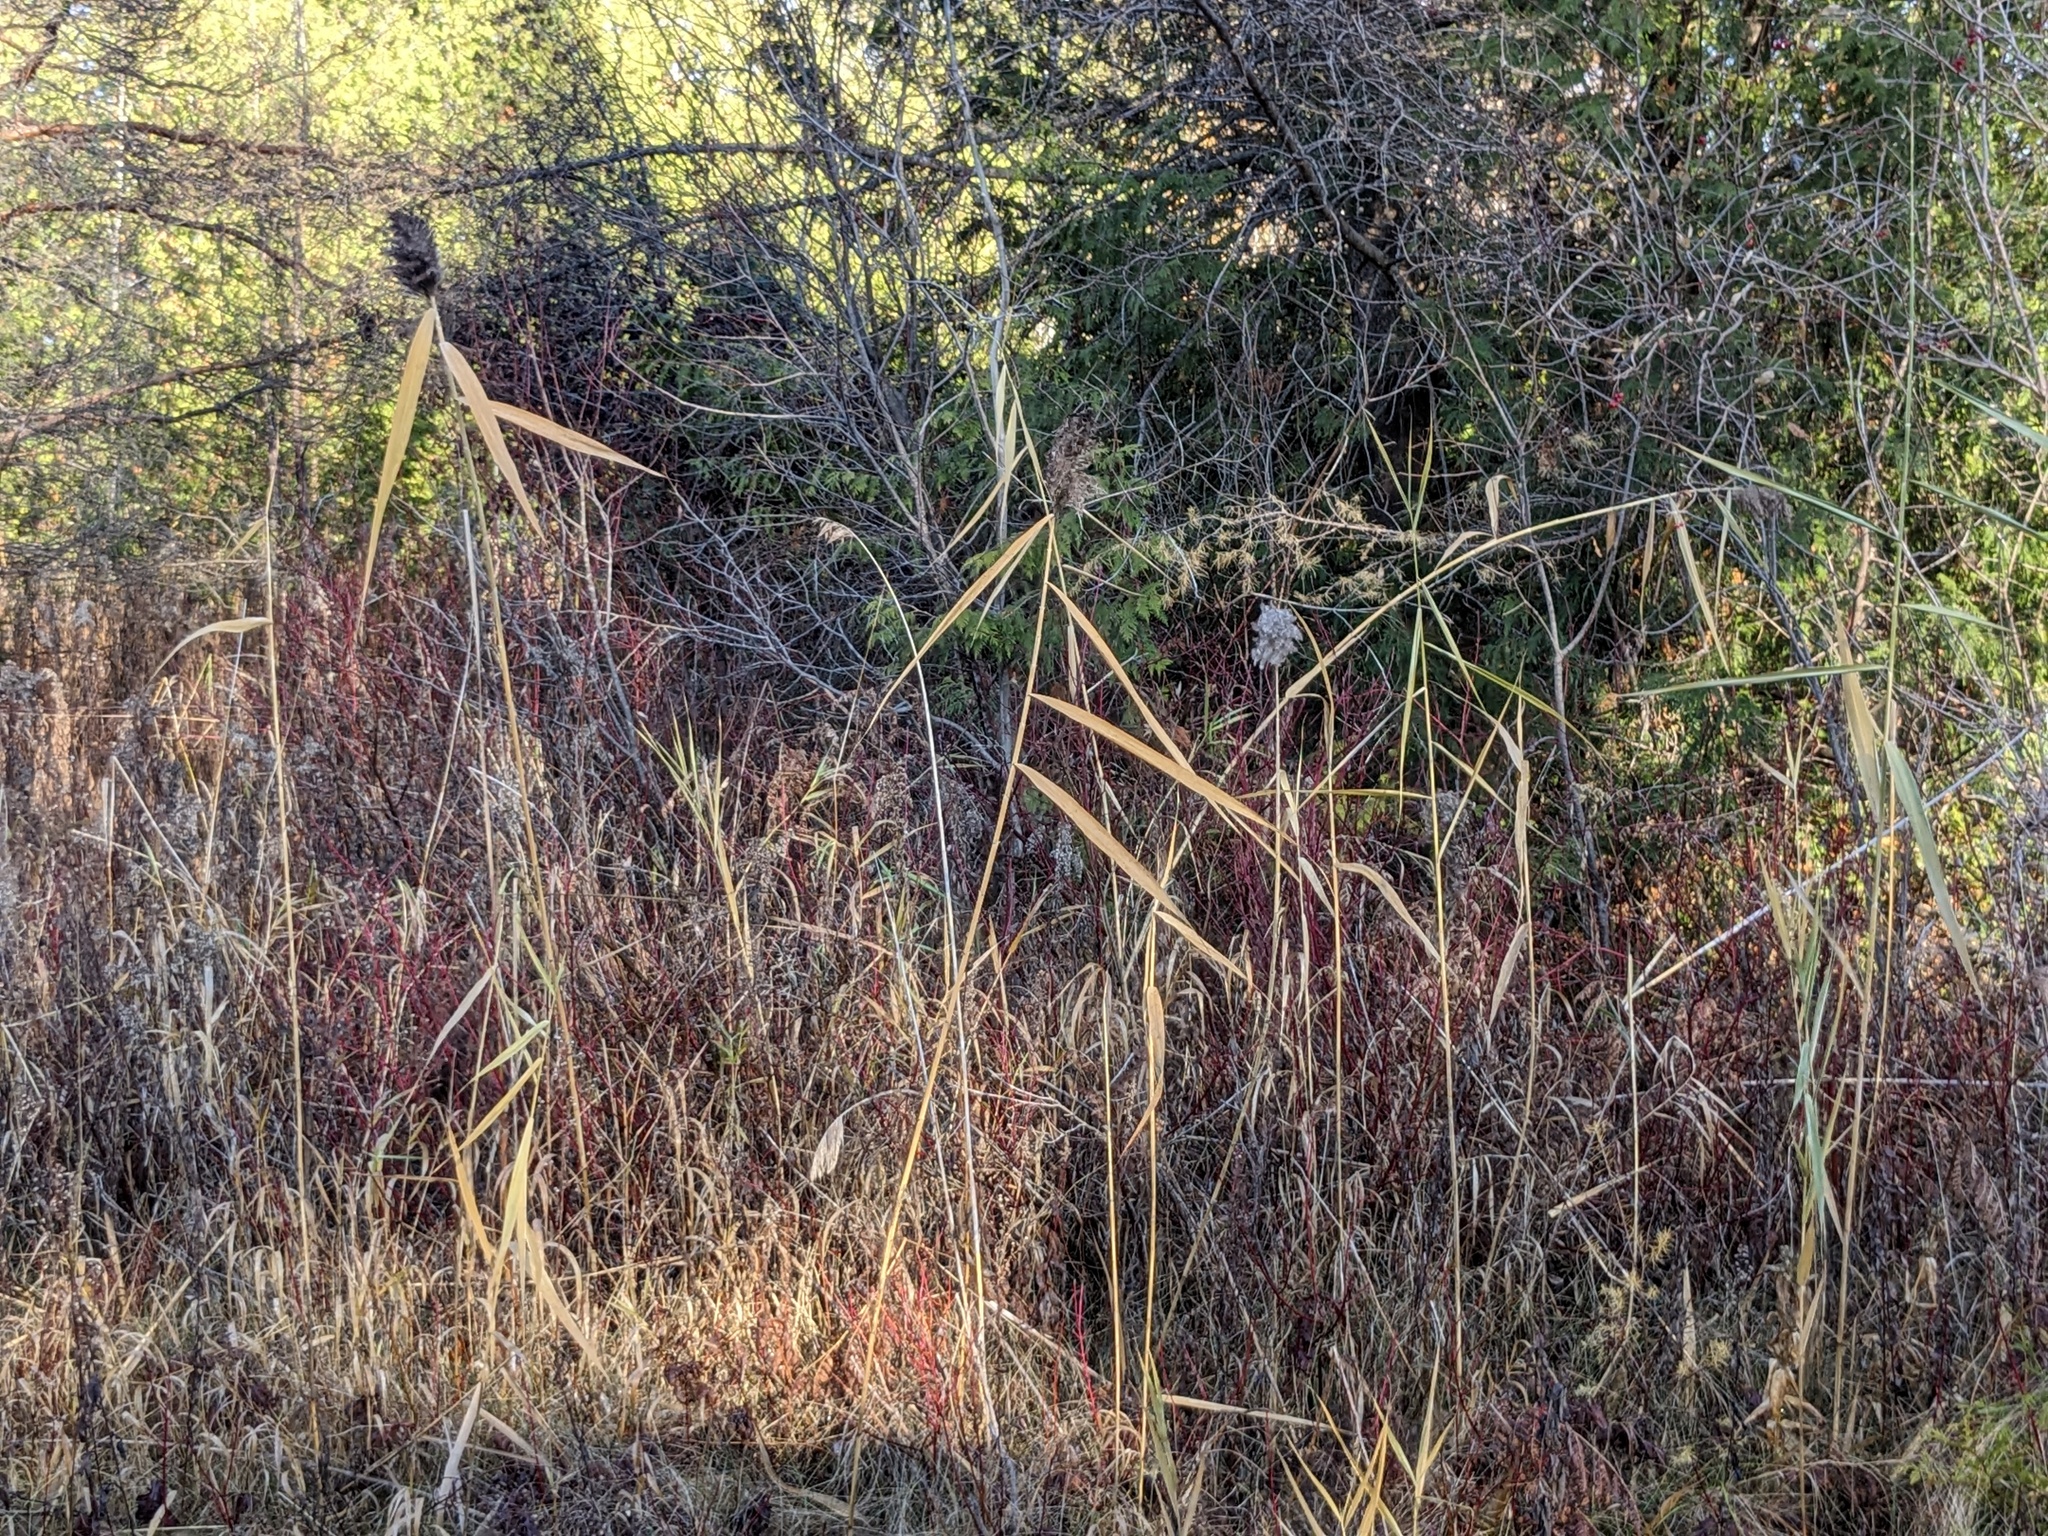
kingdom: Plantae
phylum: Tracheophyta
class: Liliopsida
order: Poales
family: Poaceae
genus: Phragmites
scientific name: Phragmites australis
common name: Common reed
